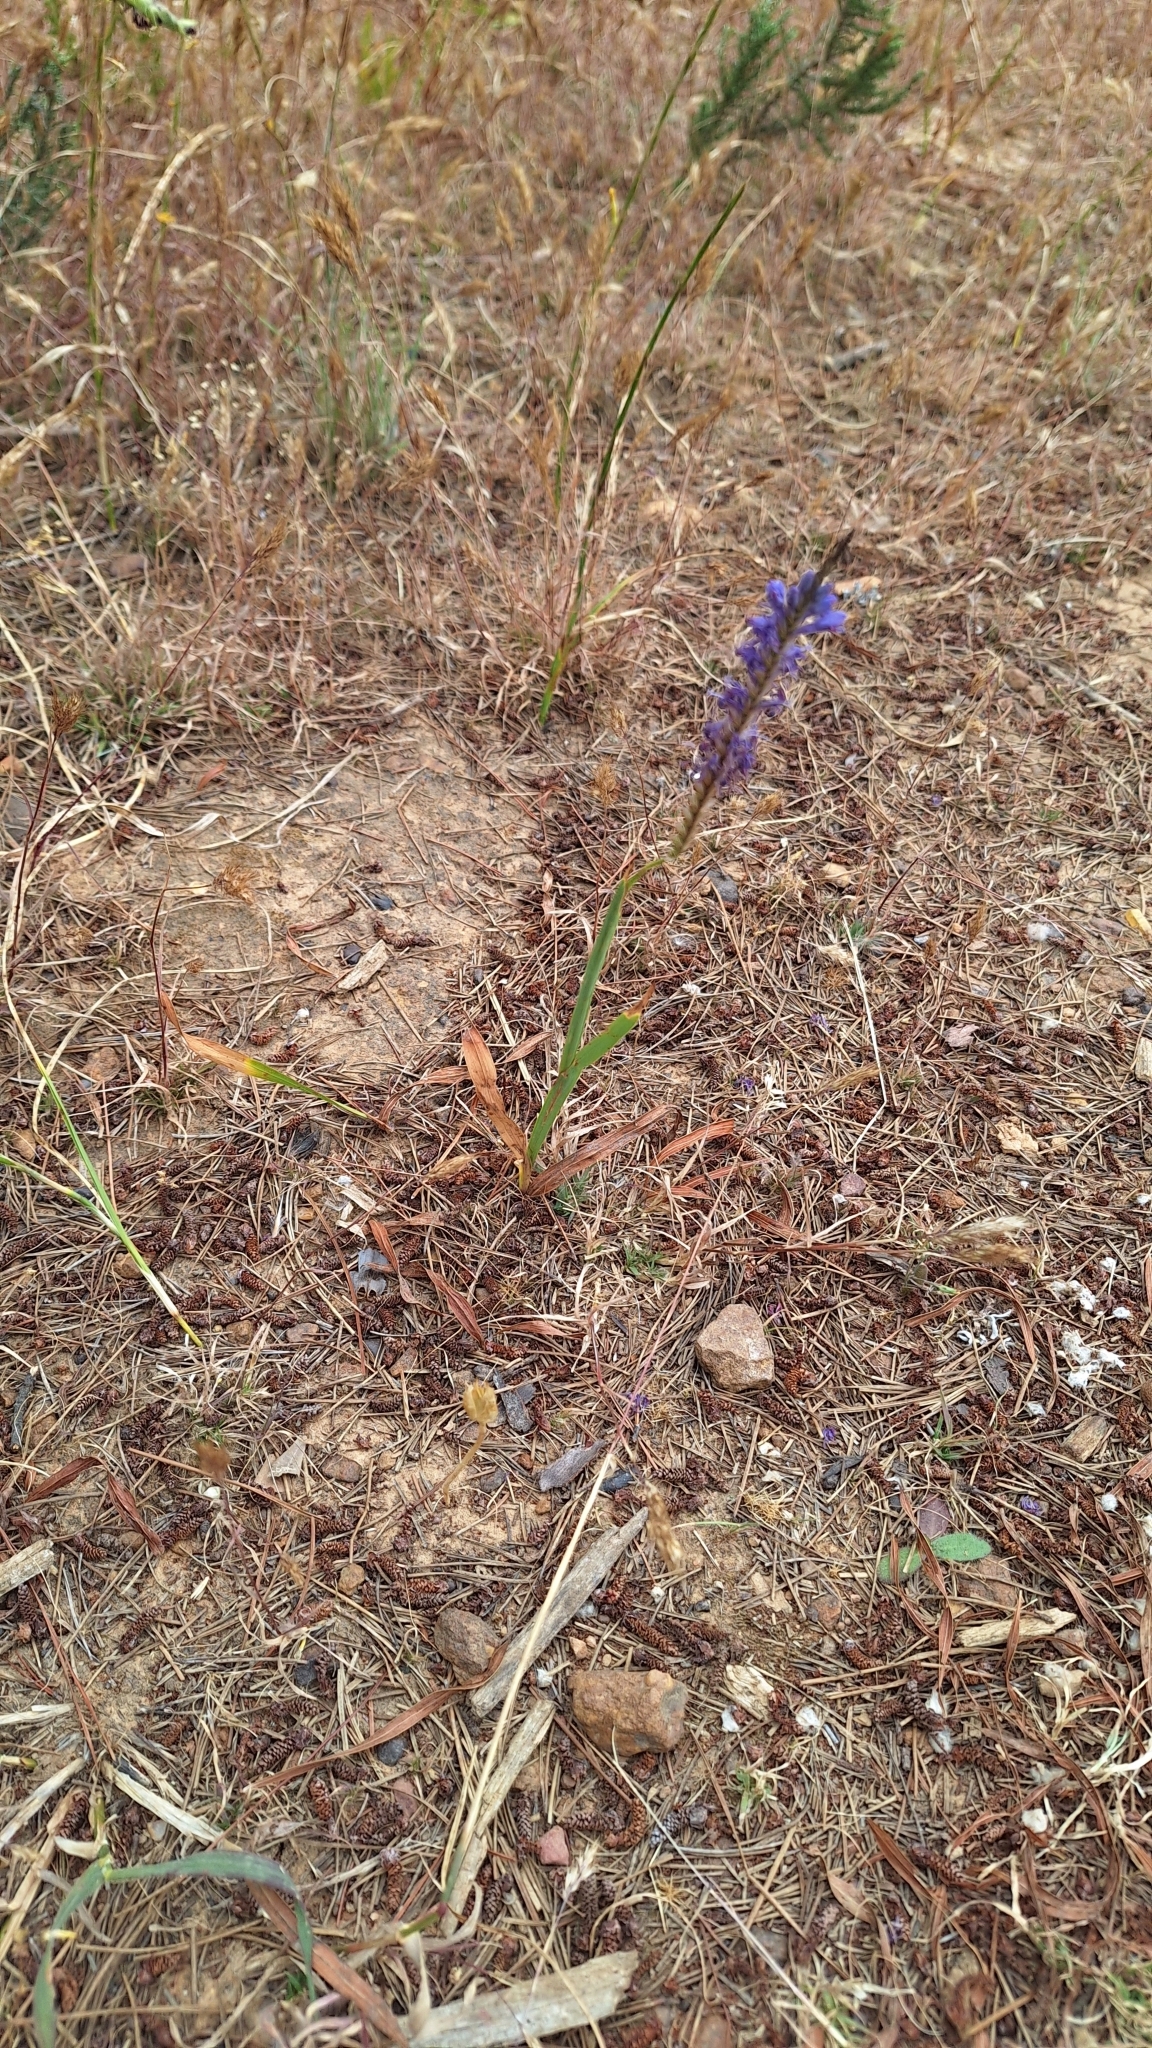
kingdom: Plantae
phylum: Tracheophyta
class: Liliopsida
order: Asparagales
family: Iridaceae
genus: Micranthus
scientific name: Micranthus alopecuroides
